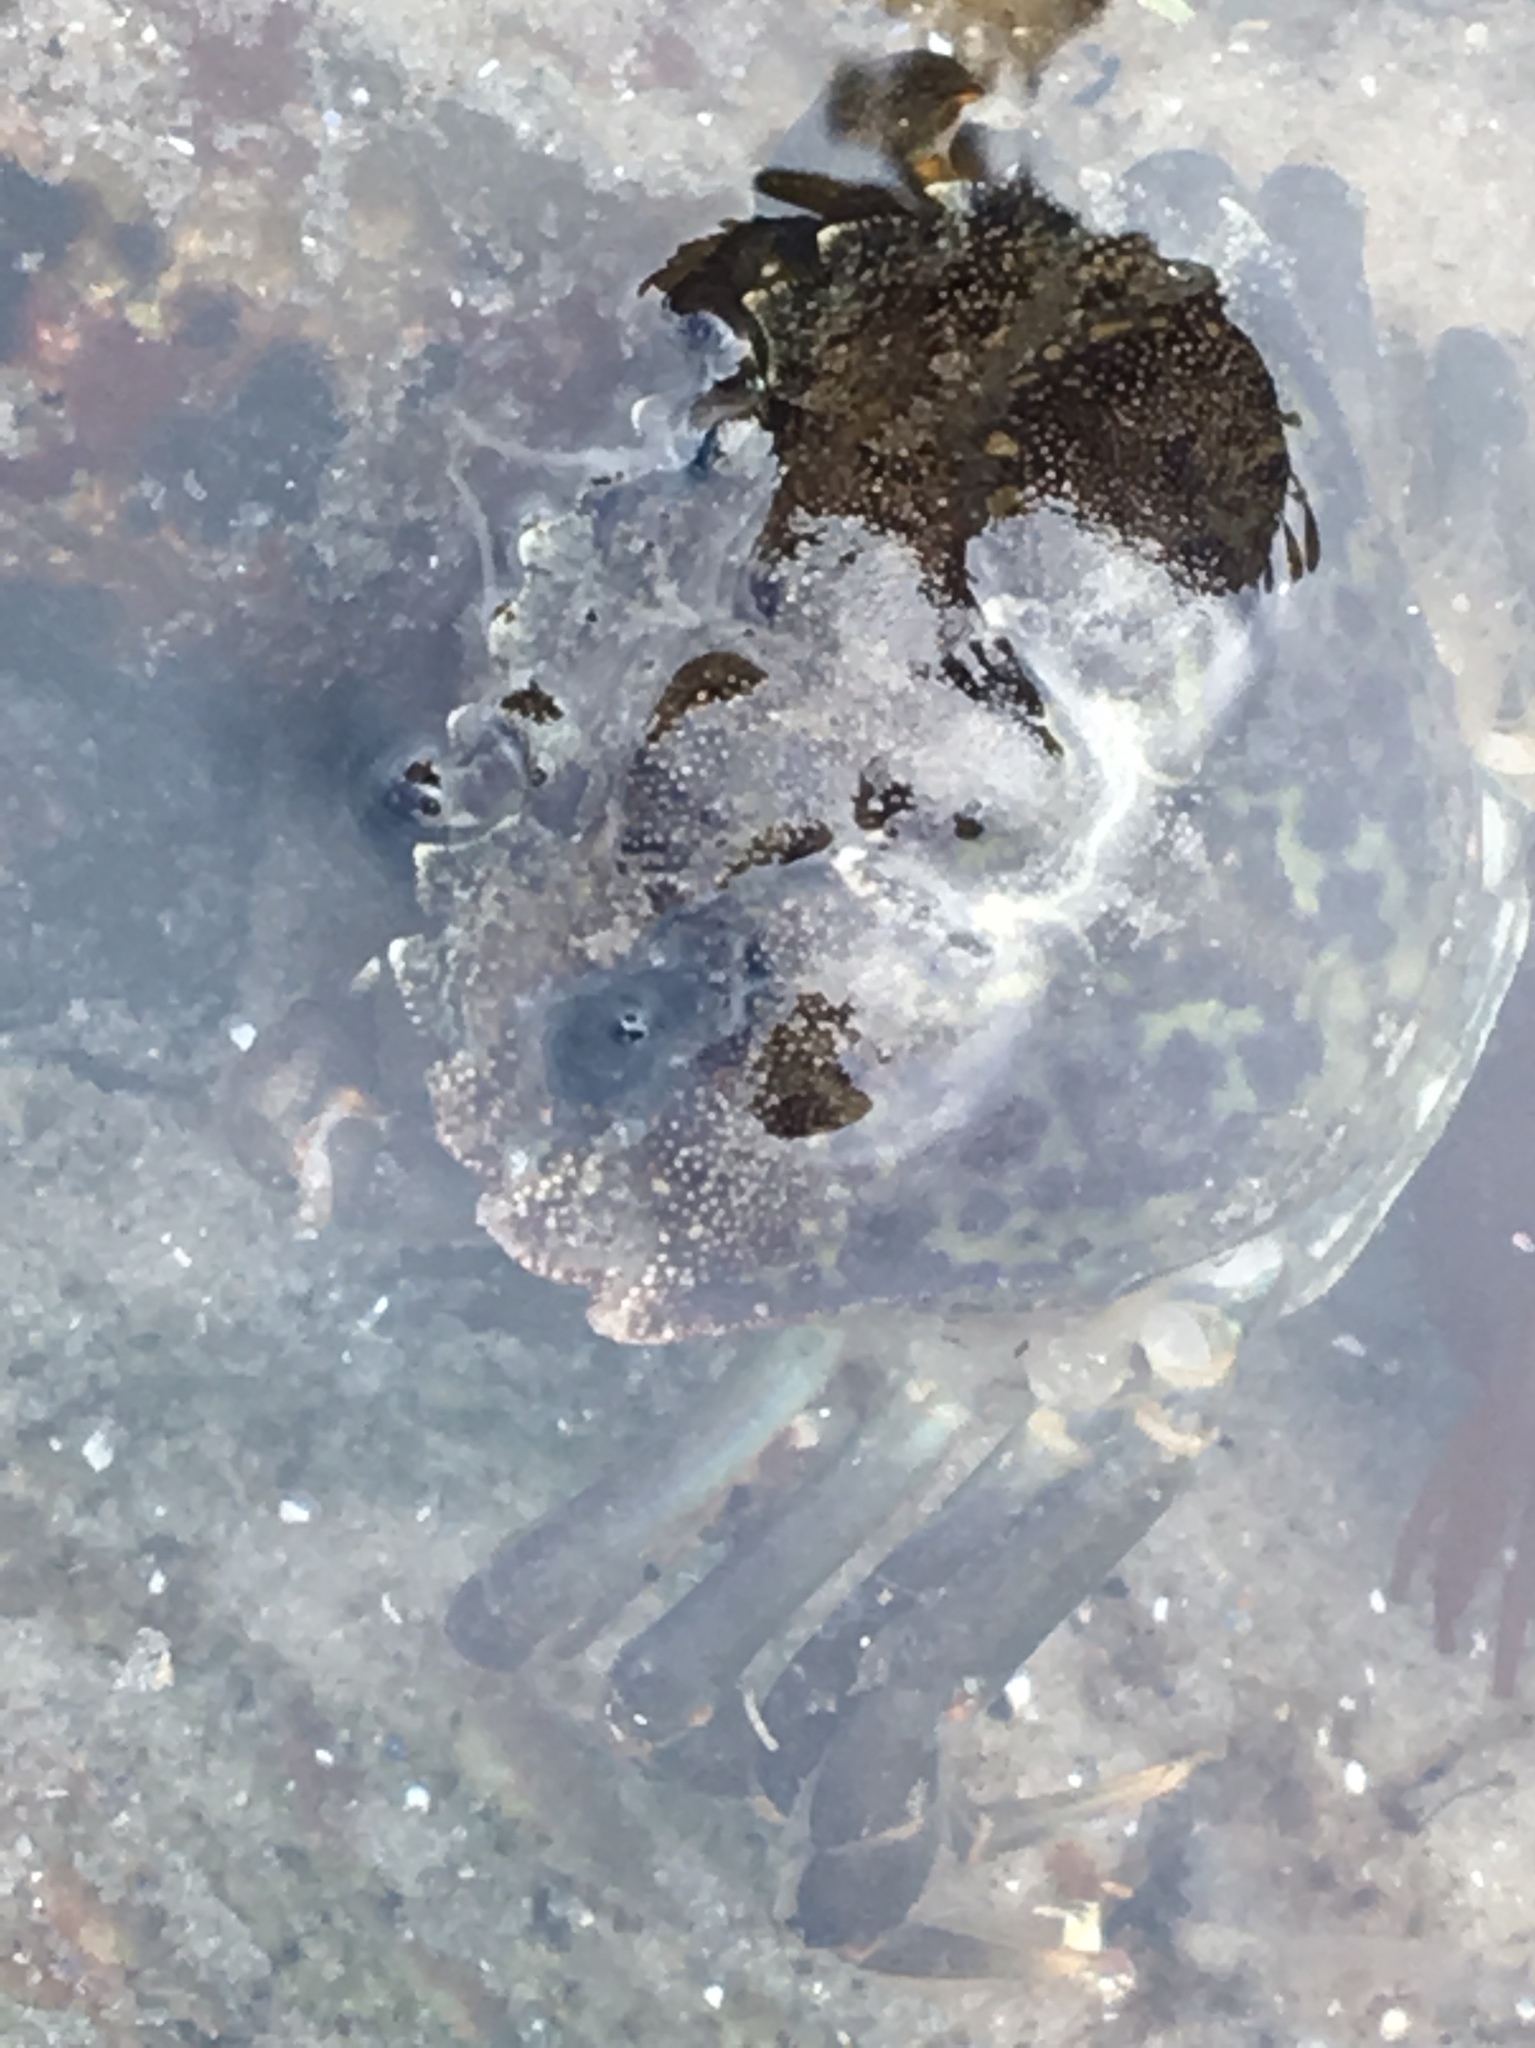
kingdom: Animalia
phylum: Arthropoda
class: Malacostraca
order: Decapoda
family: Carcinidae
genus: Carcinus
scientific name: Carcinus maenas
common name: European green crab
